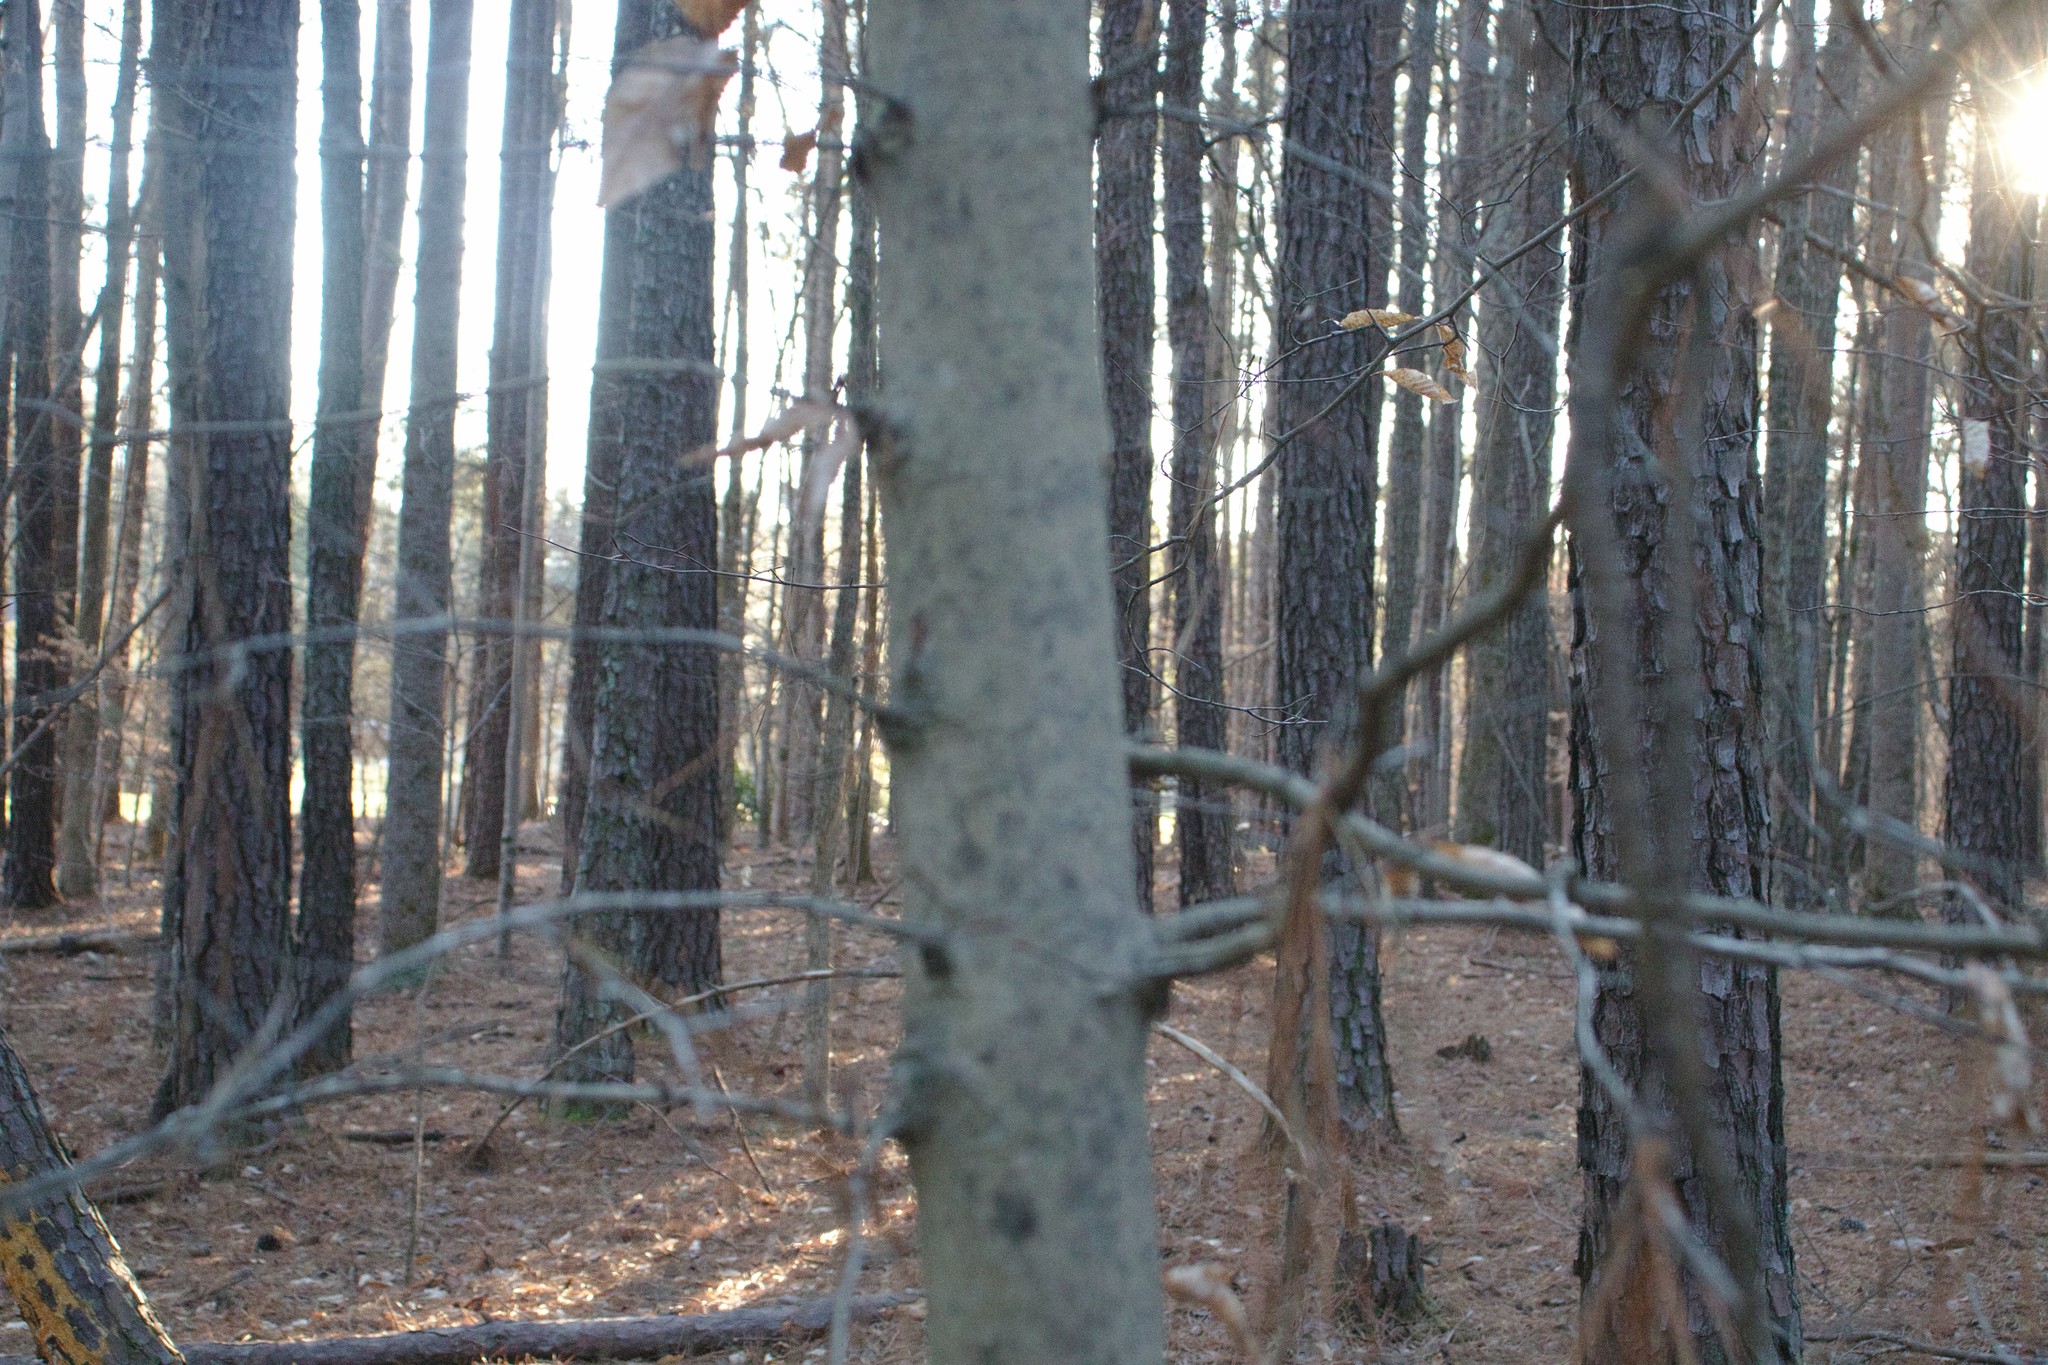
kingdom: Plantae
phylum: Tracheophyta
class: Magnoliopsida
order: Fagales
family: Fagaceae
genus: Fagus
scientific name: Fagus grandifolia
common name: American beech
